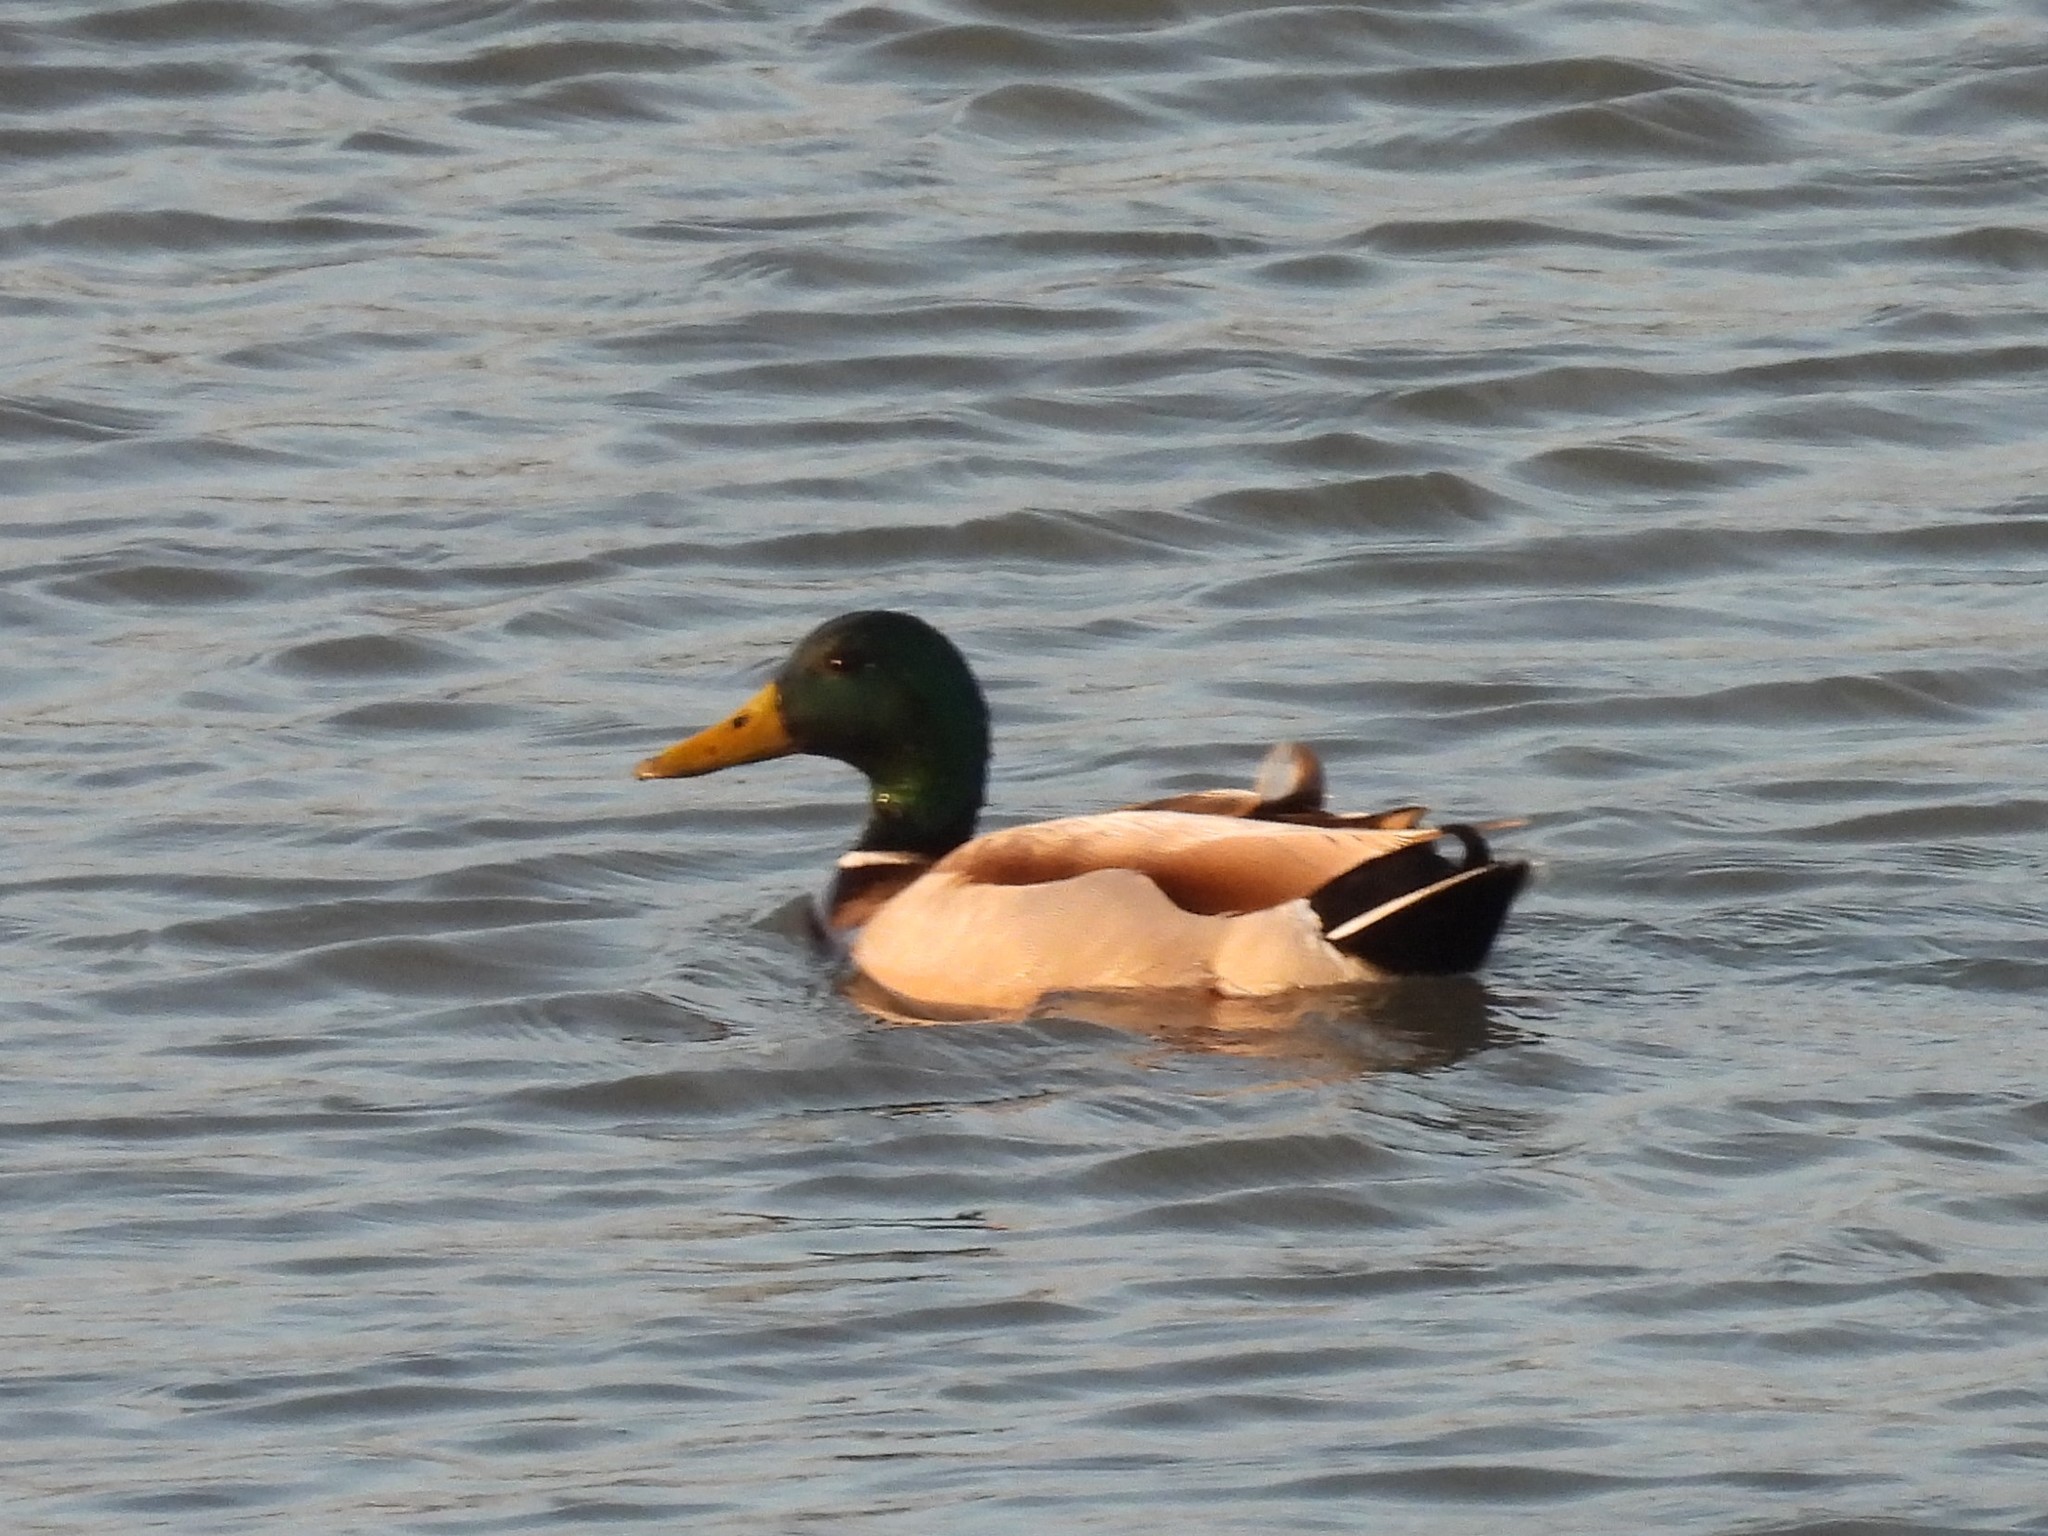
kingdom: Animalia
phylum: Chordata
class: Aves
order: Anseriformes
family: Anatidae
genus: Anas
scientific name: Anas platyrhynchos
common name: Mallard
